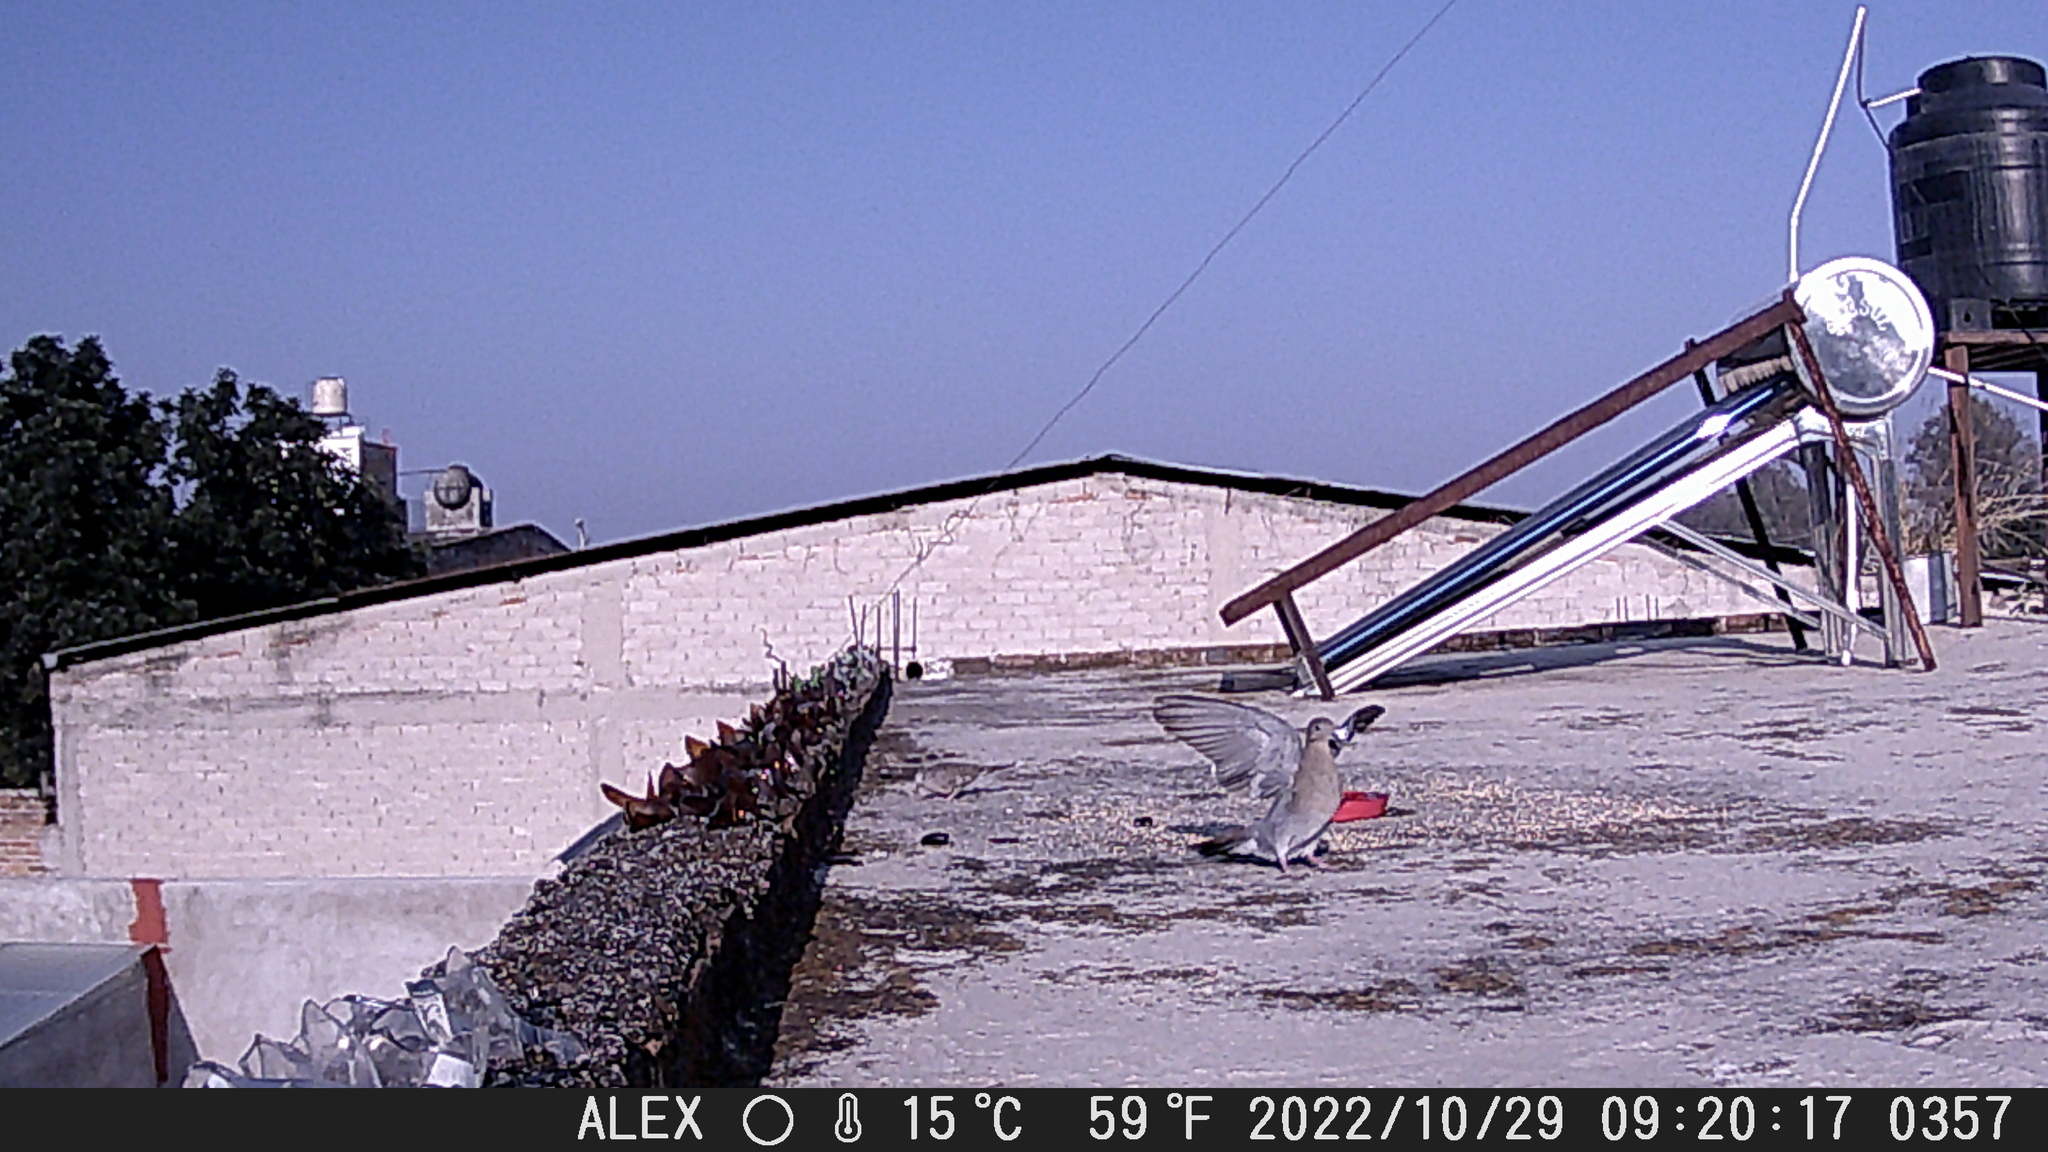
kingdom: Animalia
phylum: Chordata
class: Aves
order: Columbiformes
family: Columbidae
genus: Zenaida
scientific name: Zenaida asiatica
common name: White-winged dove
